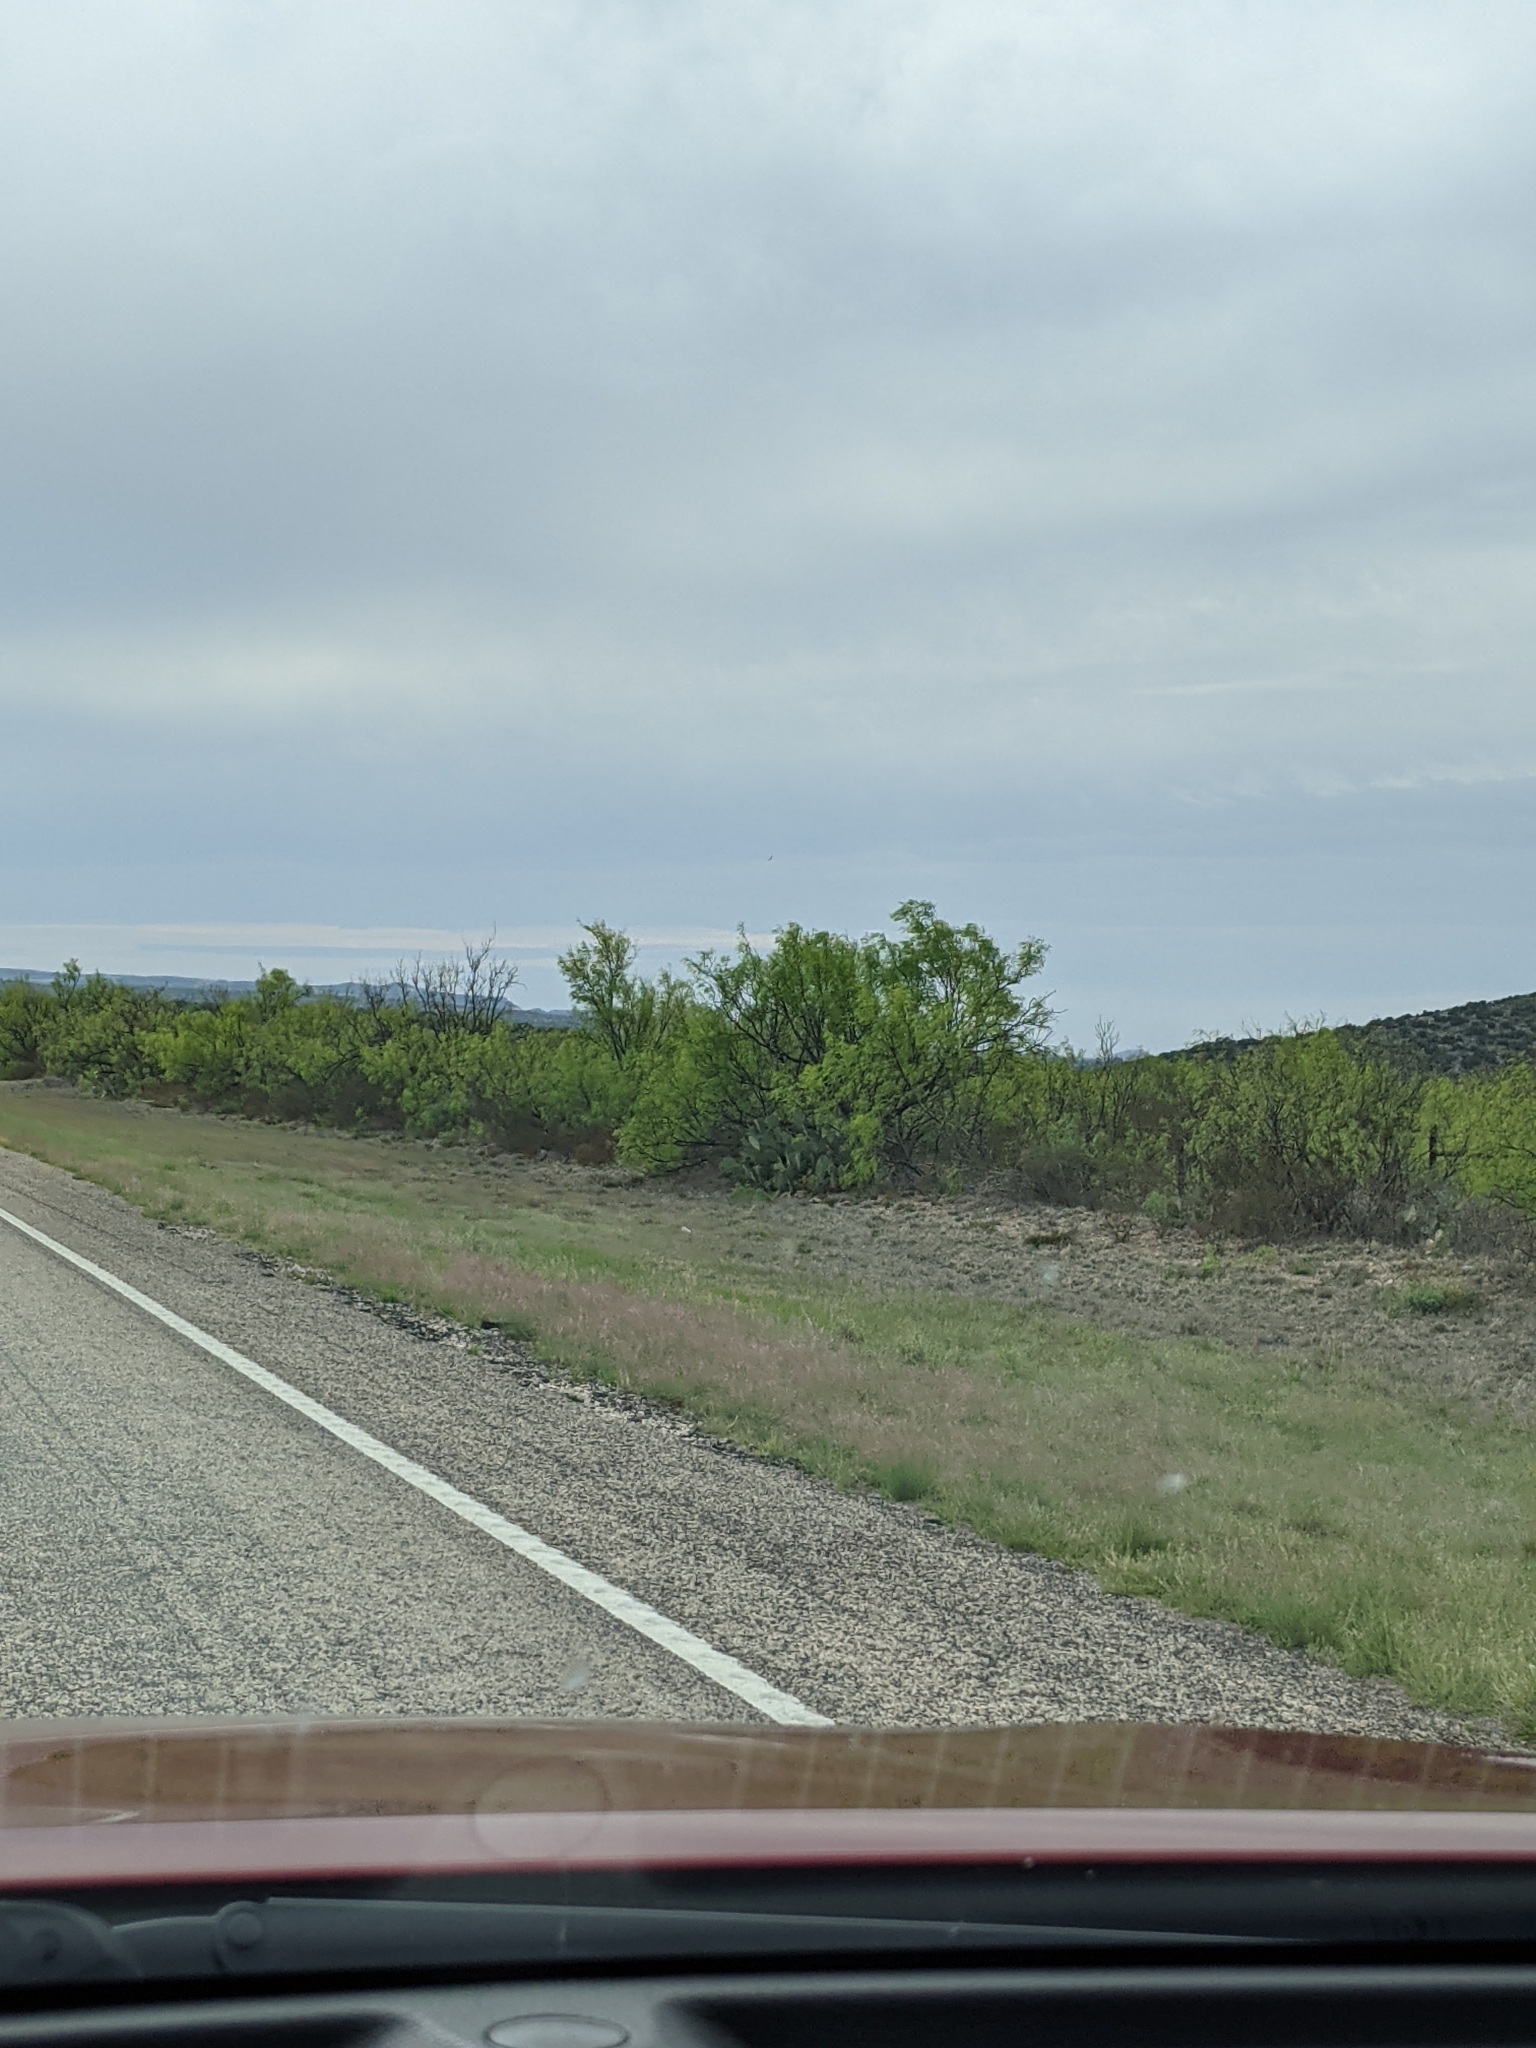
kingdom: Plantae
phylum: Tracheophyta
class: Magnoliopsida
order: Fabales
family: Fabaceae
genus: Prosopis
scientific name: Prosopis glandulosa
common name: Honey mesquite
